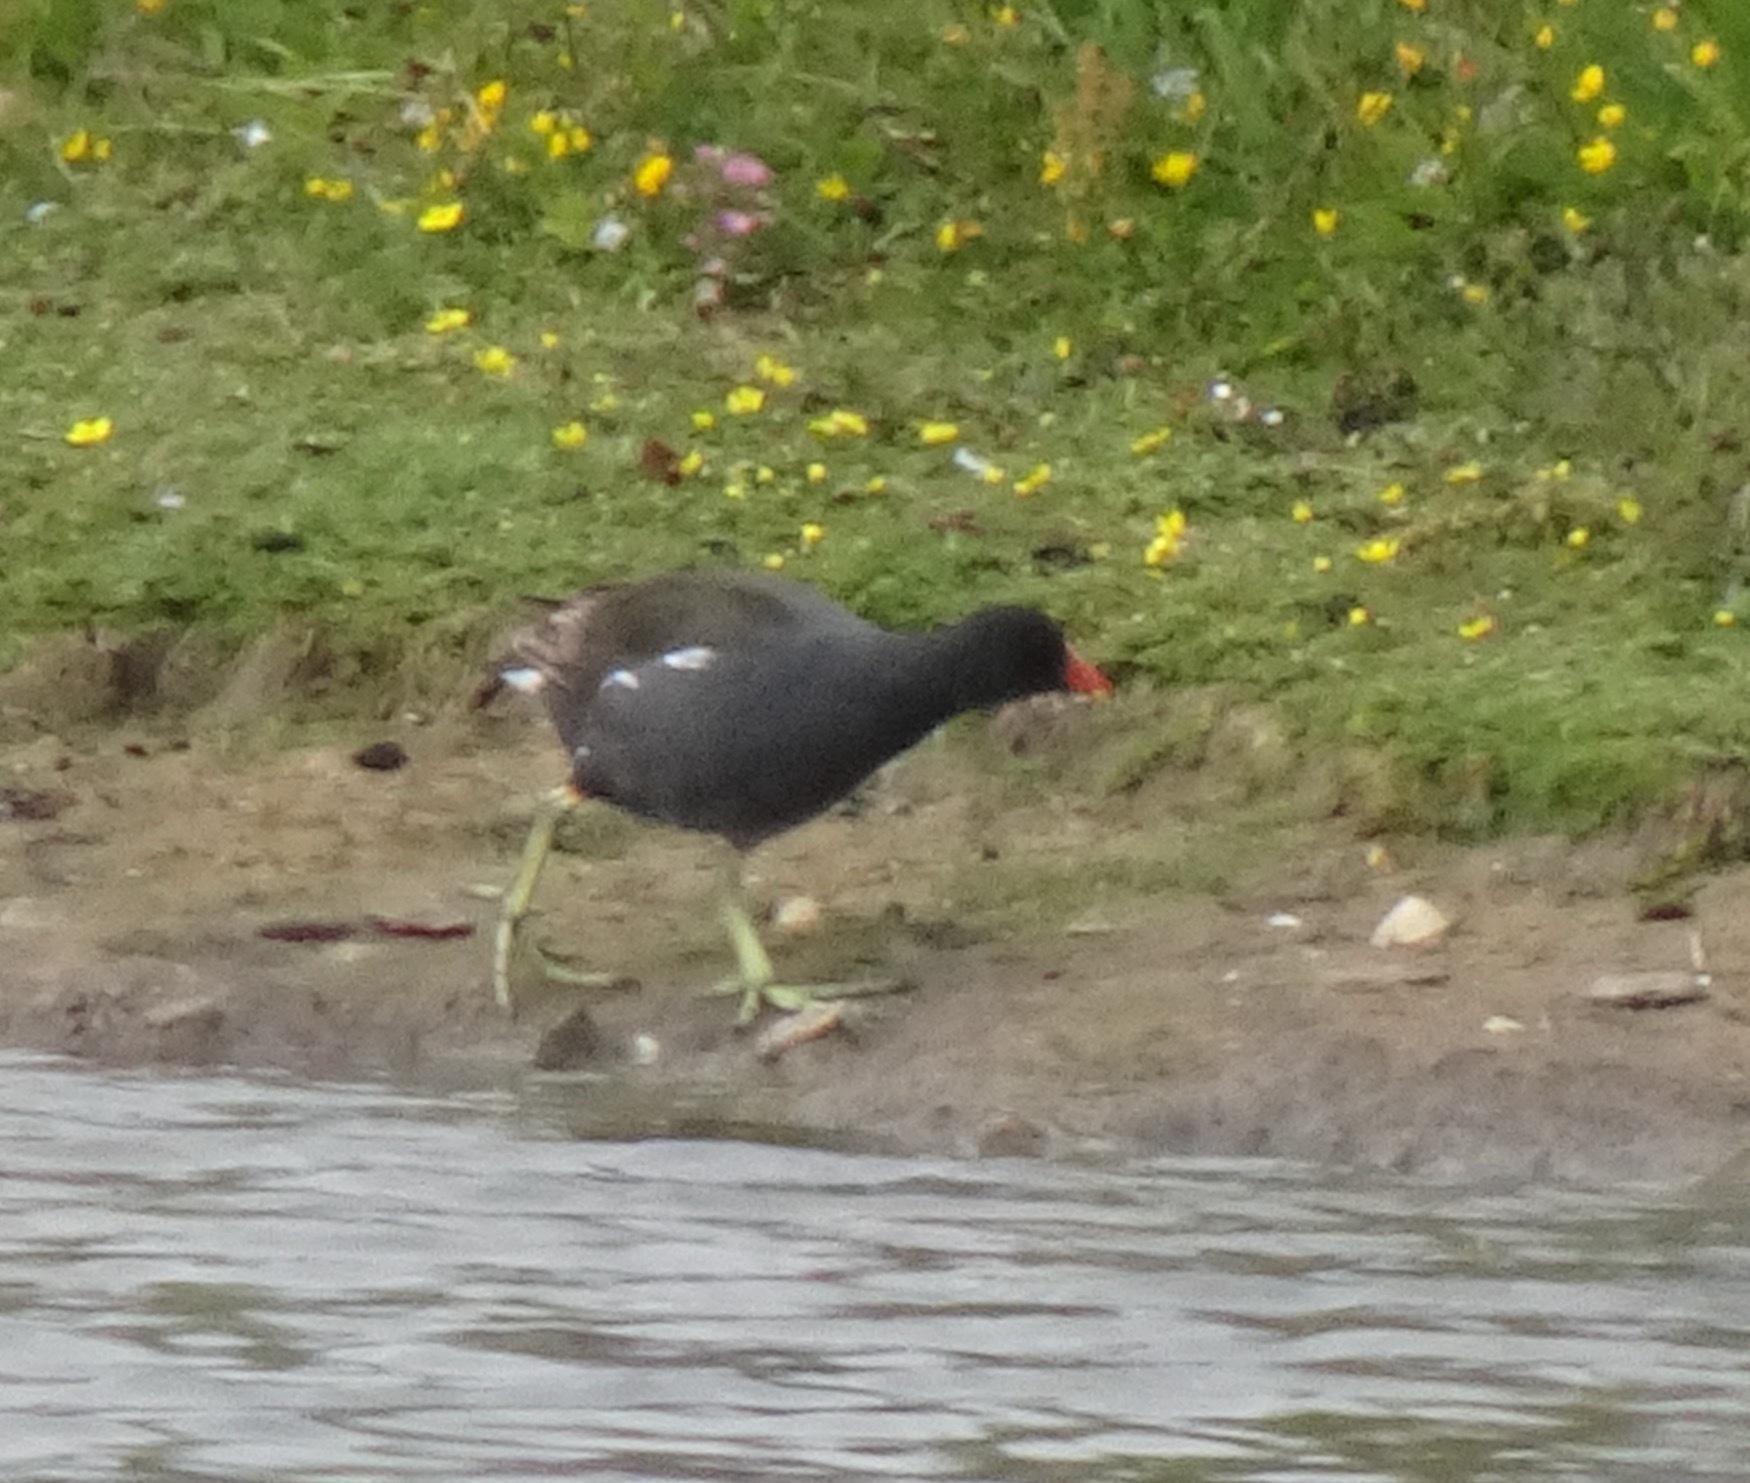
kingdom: Animalia
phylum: Chordata
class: Aves
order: Gruiformes
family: Rallidae
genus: Gallinula
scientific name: Gallinula chloropus
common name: Common moorhen
